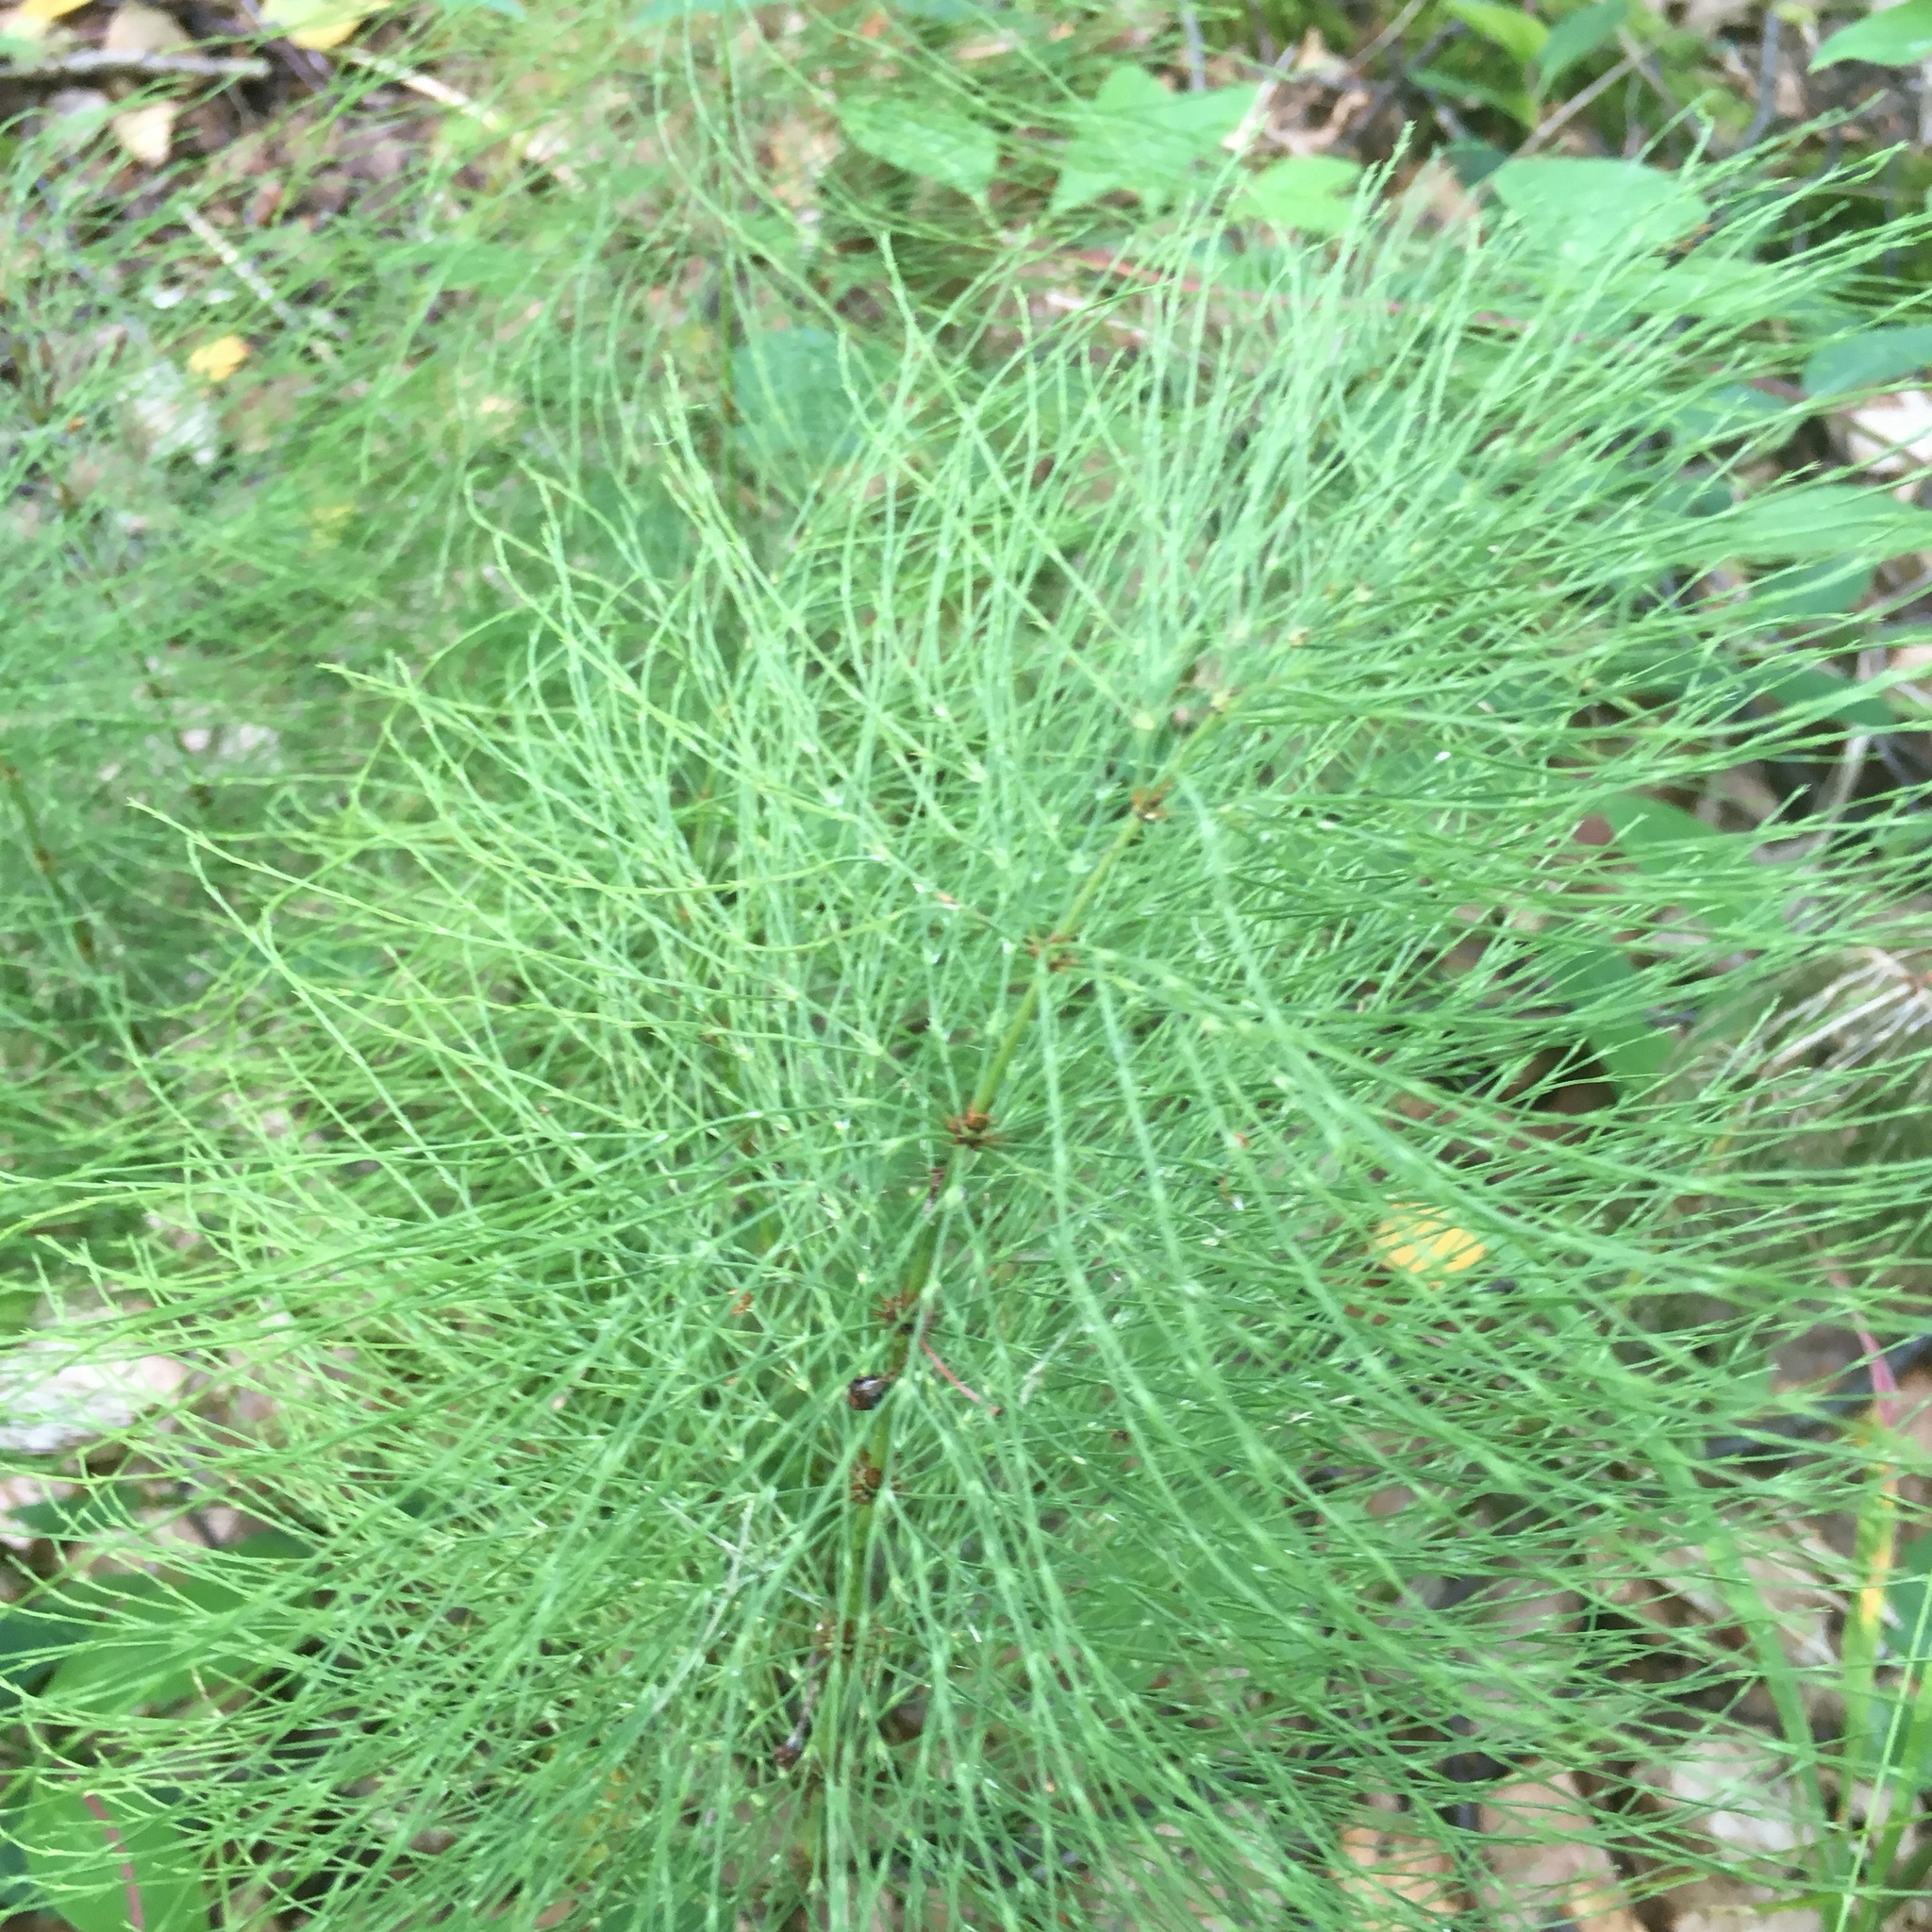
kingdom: Plantae
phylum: Tracheophyta
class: Polypodiopsida
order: Equisetales
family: Equisetaceae
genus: Equisetum
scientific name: Equisetum sylvaticum
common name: Wood horsetail
